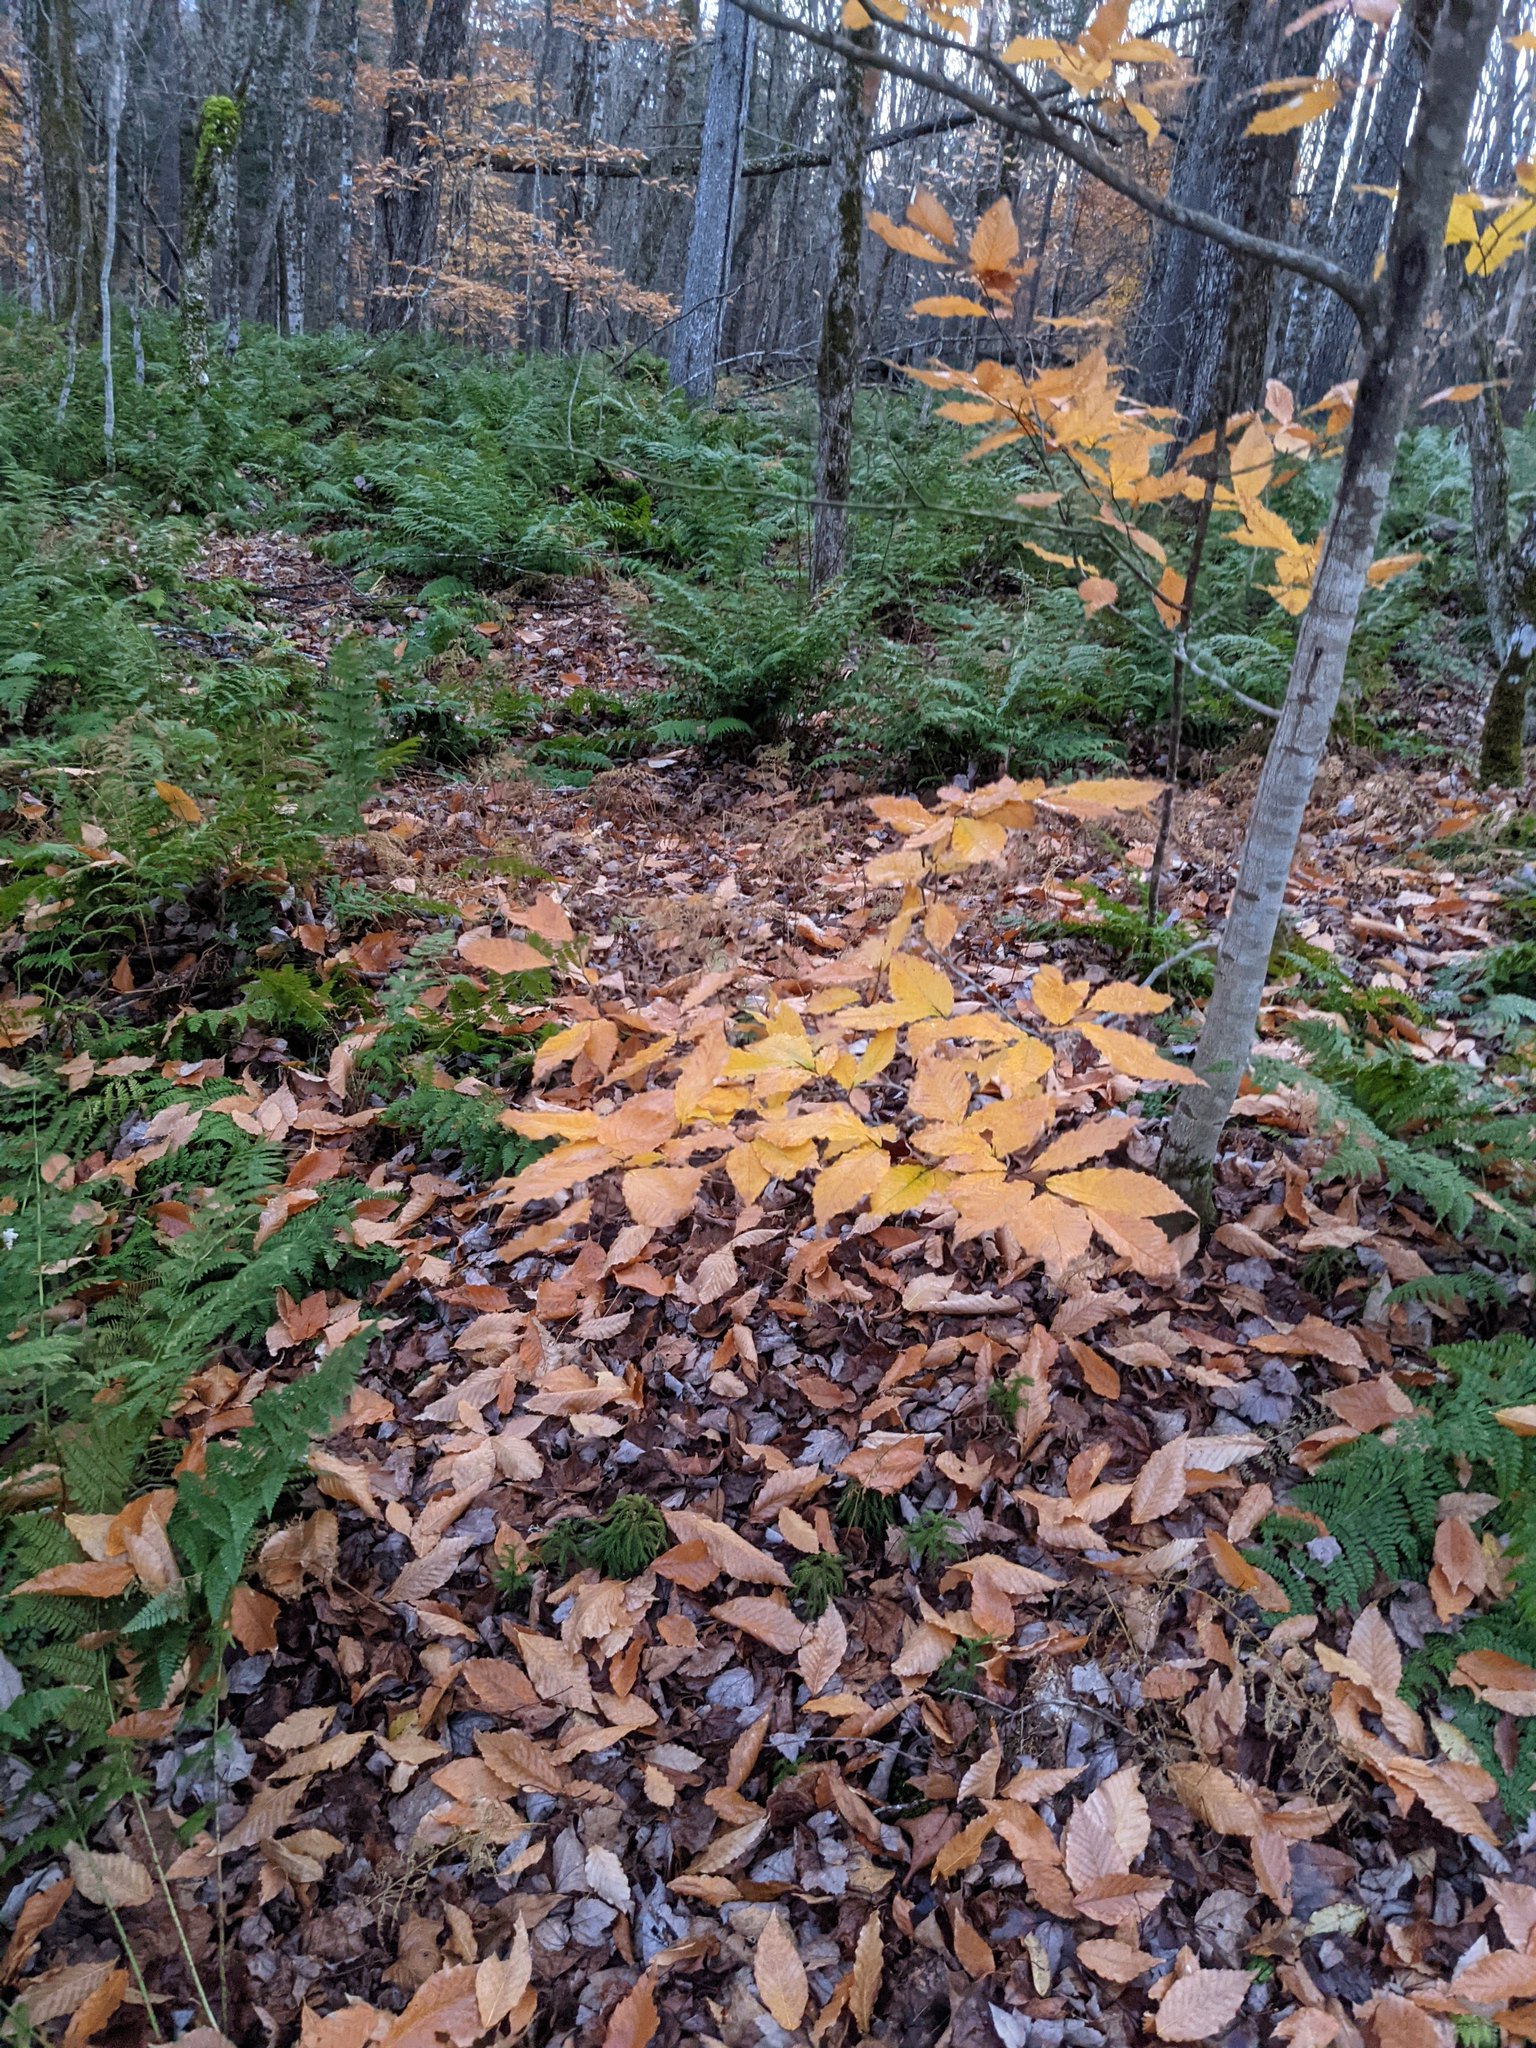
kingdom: Plantae
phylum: Tracheophyta
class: Magnoliopsida
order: Fagales
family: Fagaceae
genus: Fagus
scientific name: Fagus grandifolia
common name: American beech
